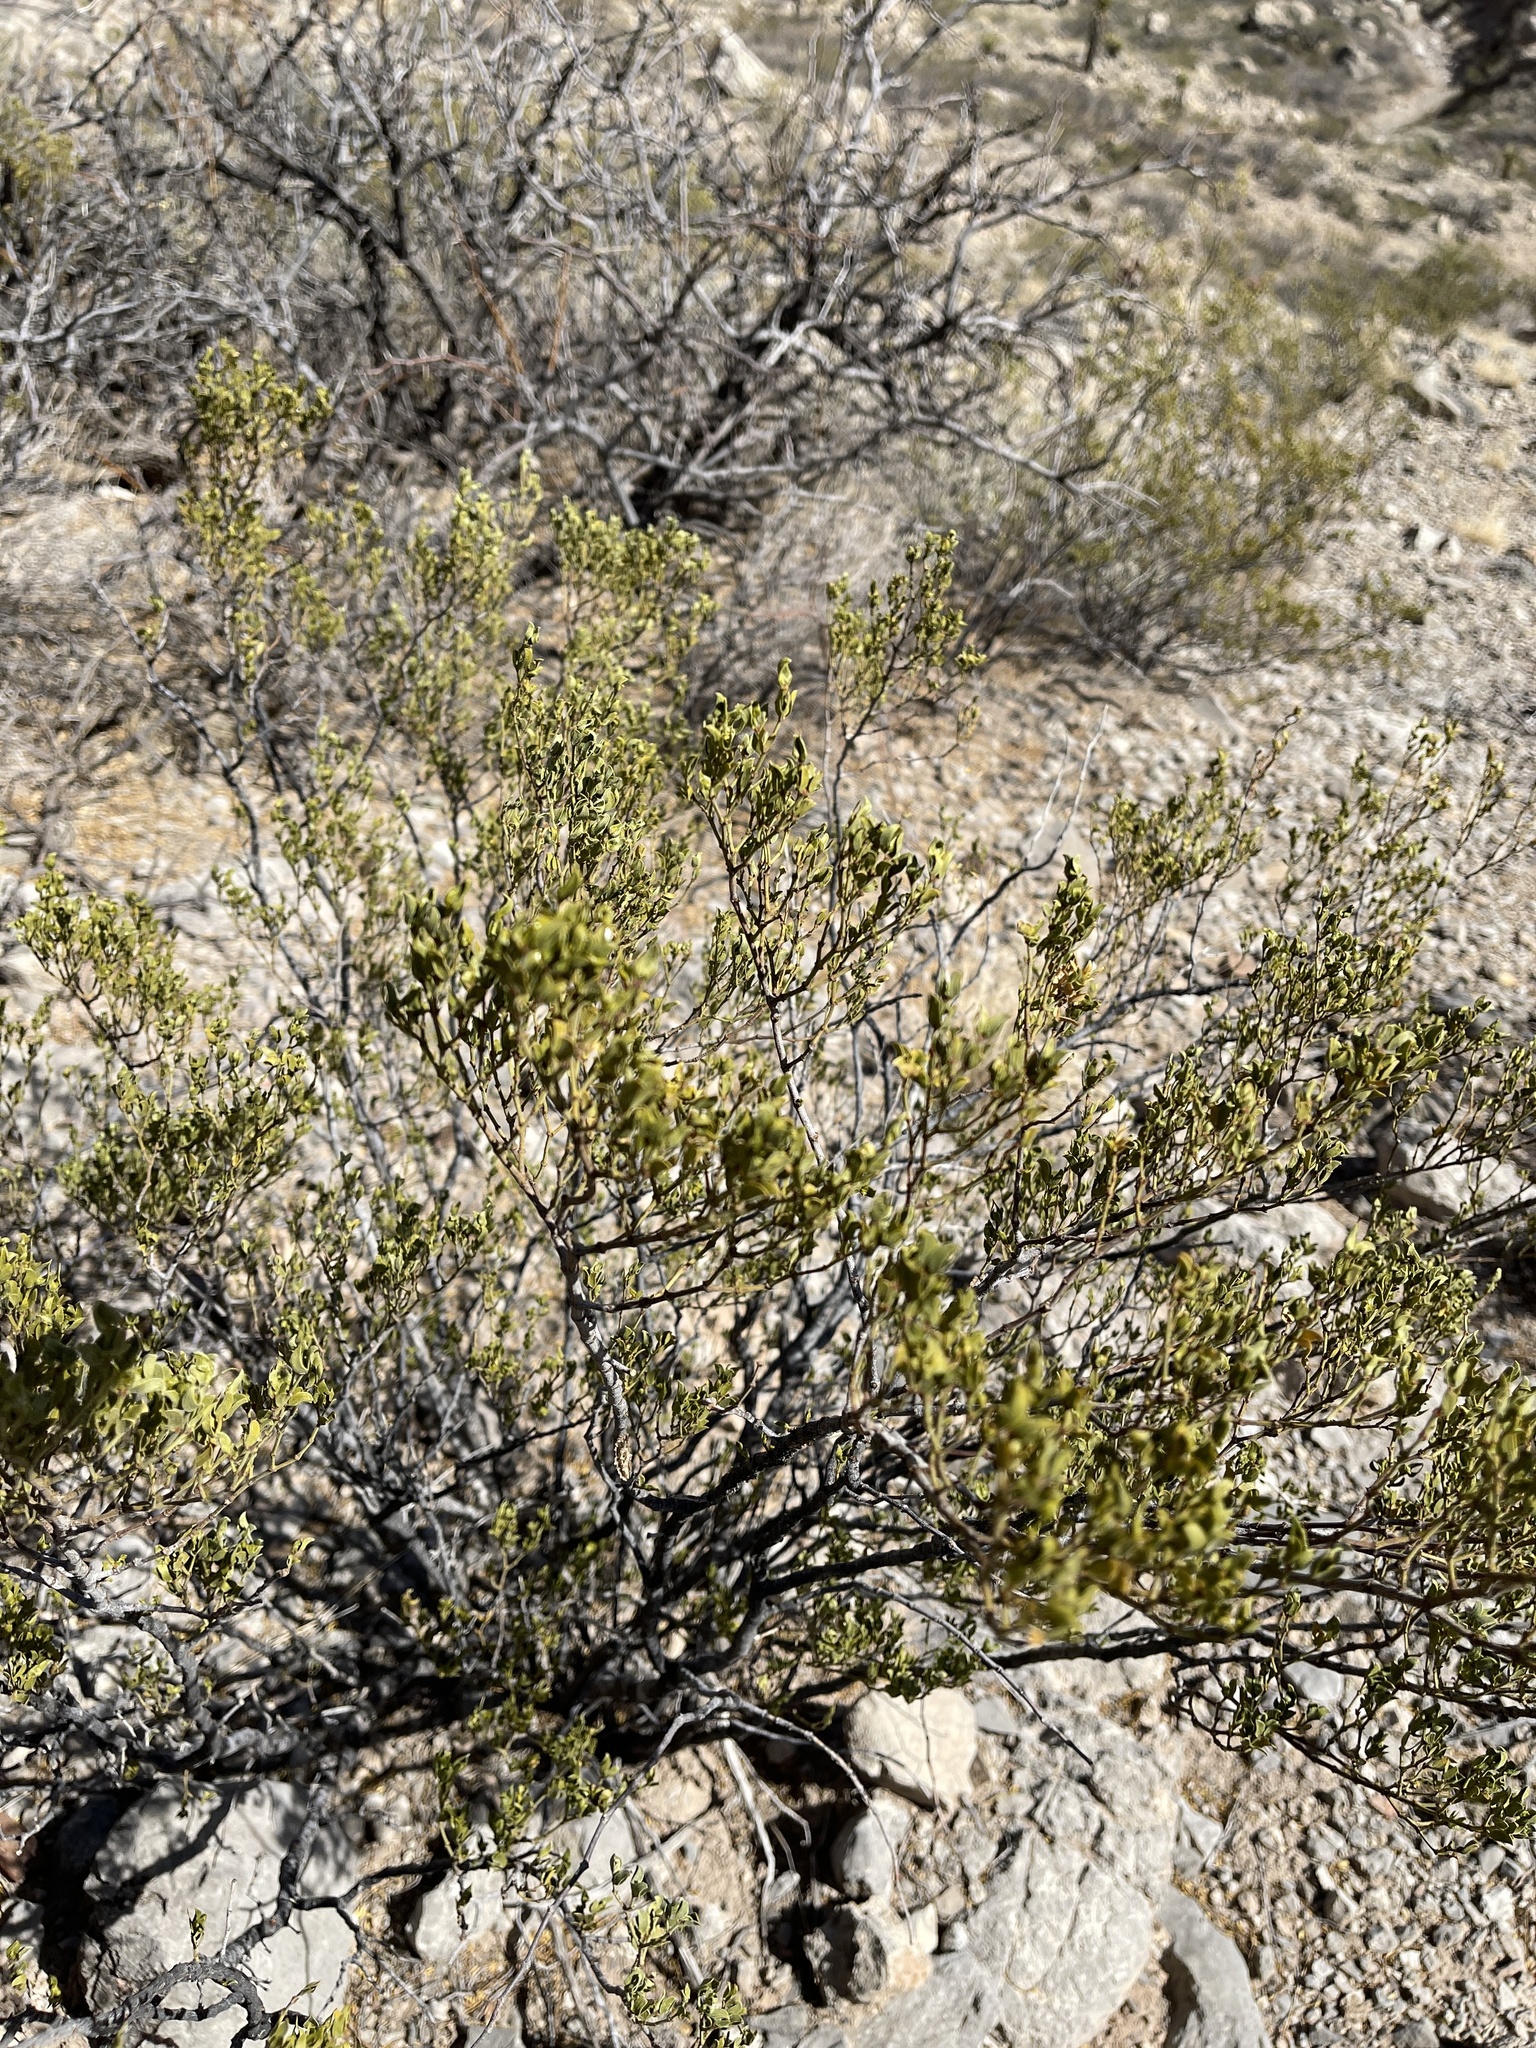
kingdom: Plantae
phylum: Tracheophyta
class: Magnoliopsida
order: Zygophyllales
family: Zygophyllaceae
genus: Larrea
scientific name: Larrea tridentata
